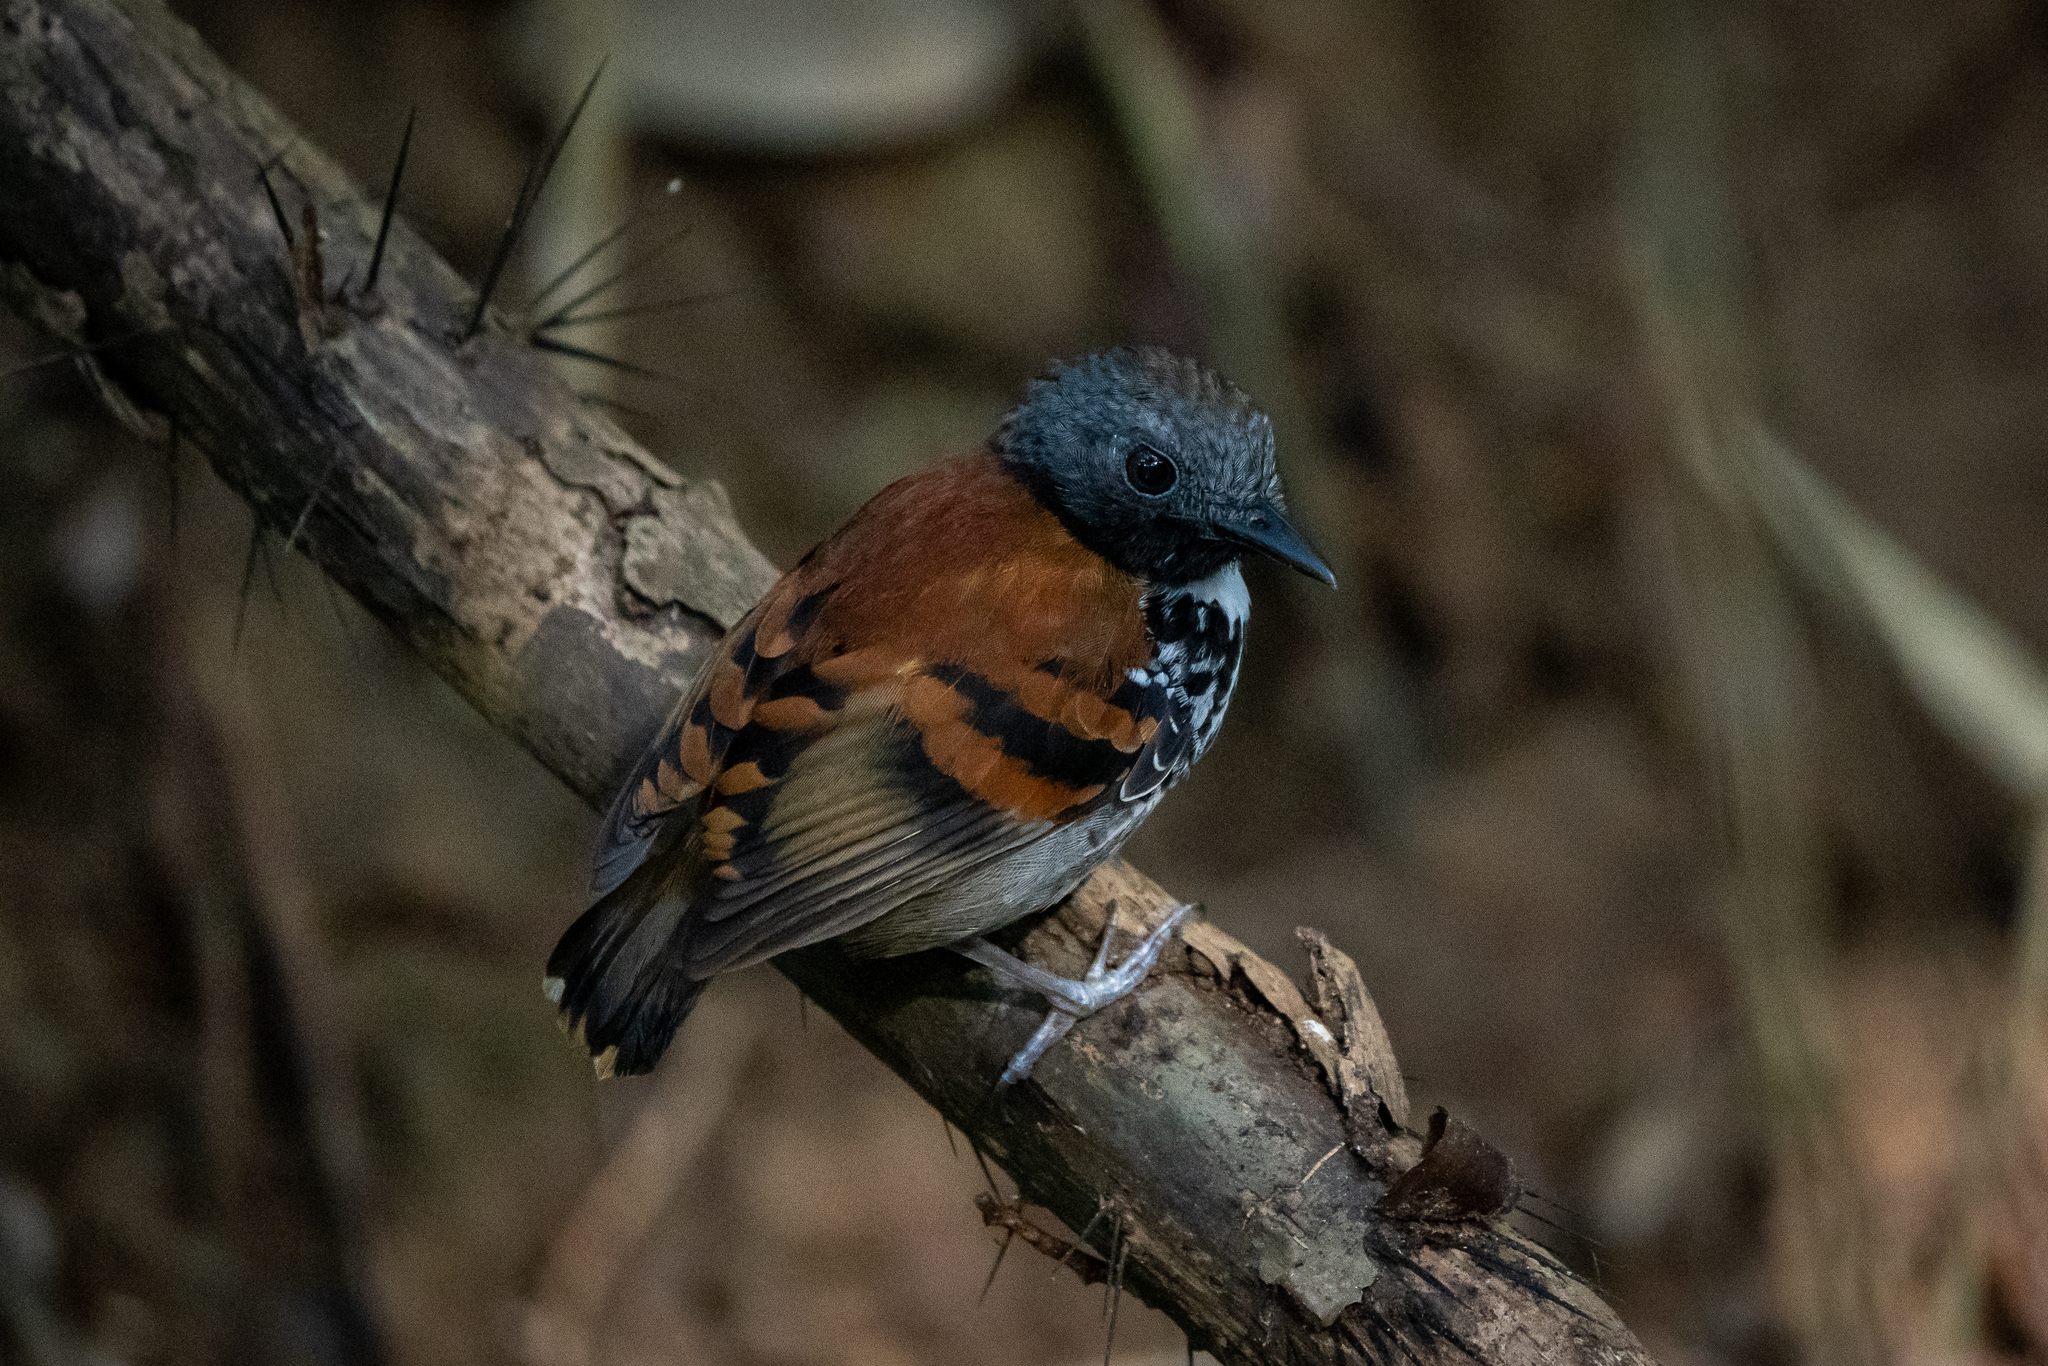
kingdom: Animalia
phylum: Chordata
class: Aves
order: Passeriformes
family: Thamnophilidae
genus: Hylophylax
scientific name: Hylophylax naevioides
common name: Spotted antbird
